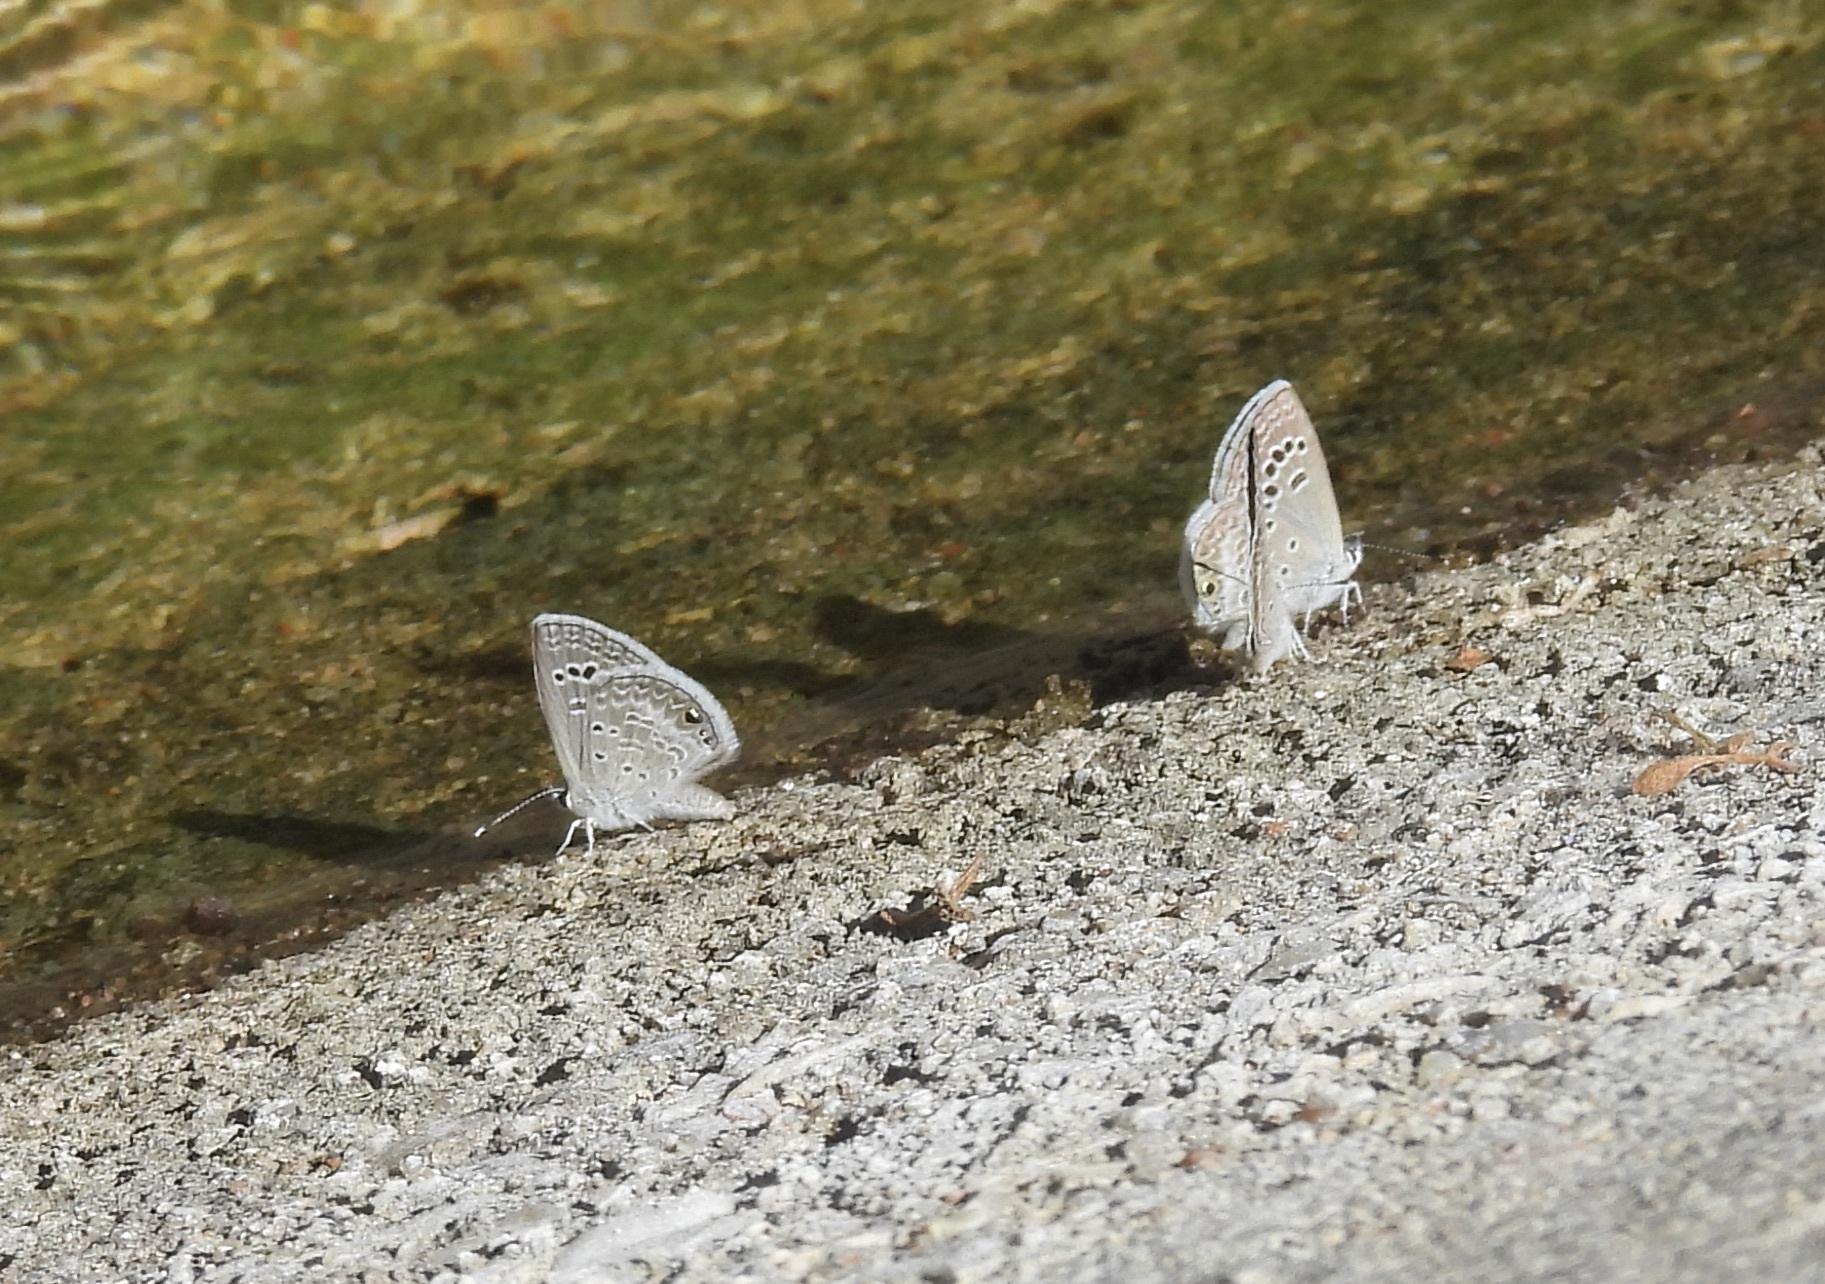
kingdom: Animalia
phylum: Arthropoda
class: Insecta
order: Lepidoptera
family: Lycaenidae
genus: Echinargus
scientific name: Echinargus isola
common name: Reakirt's blue
